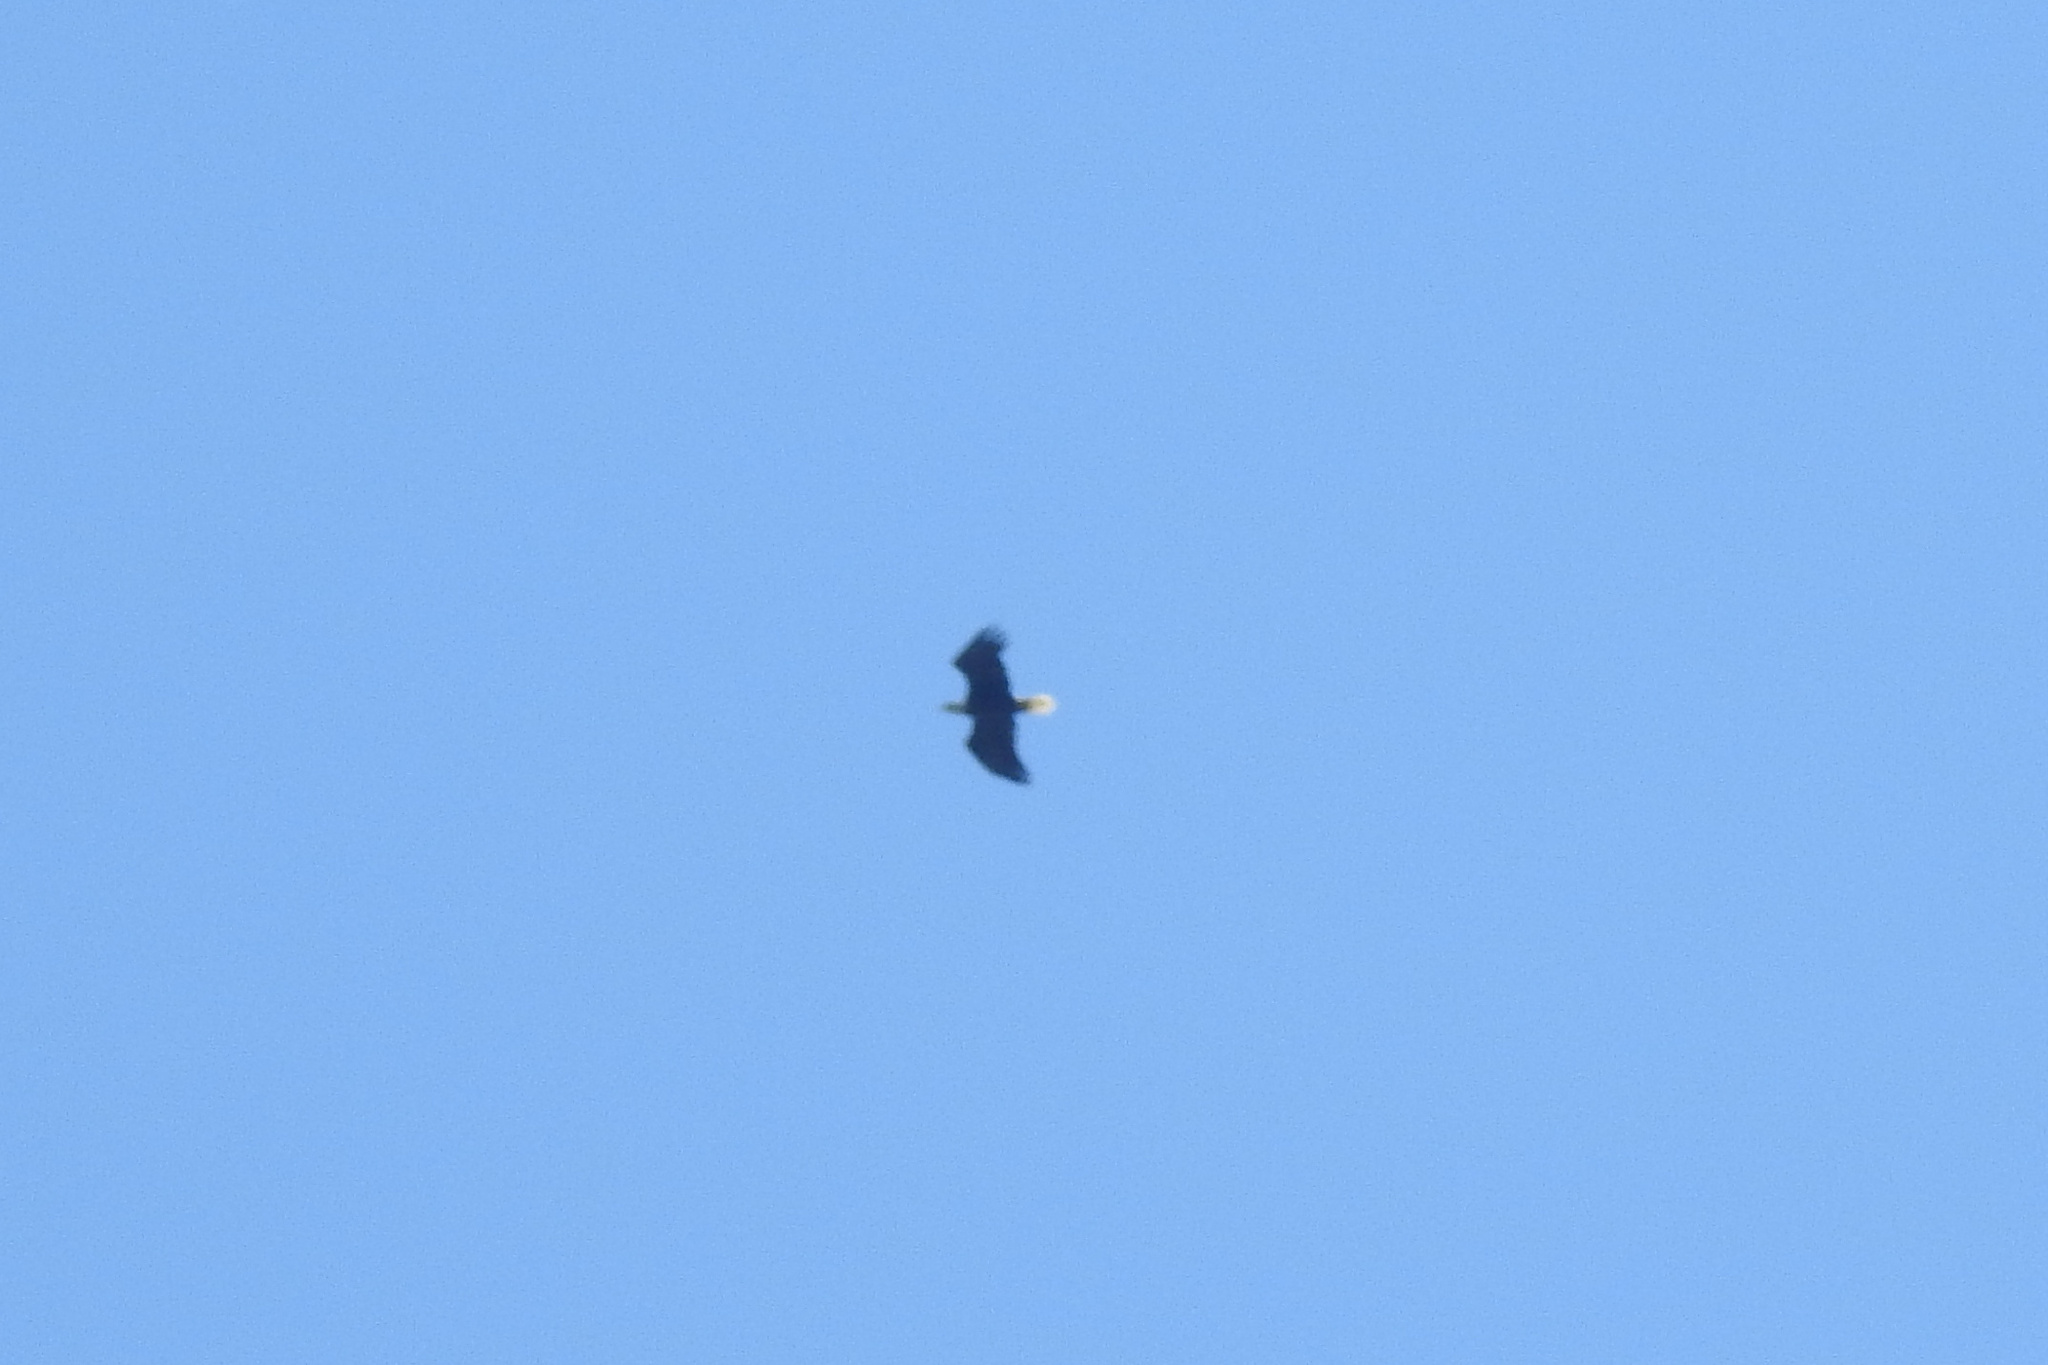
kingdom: Animalia
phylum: Chordata
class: Aves
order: Accipitriformes
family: Accipitridae
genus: Haliaeetus
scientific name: Haliaeetus leucocephalus
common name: Bald eagle
